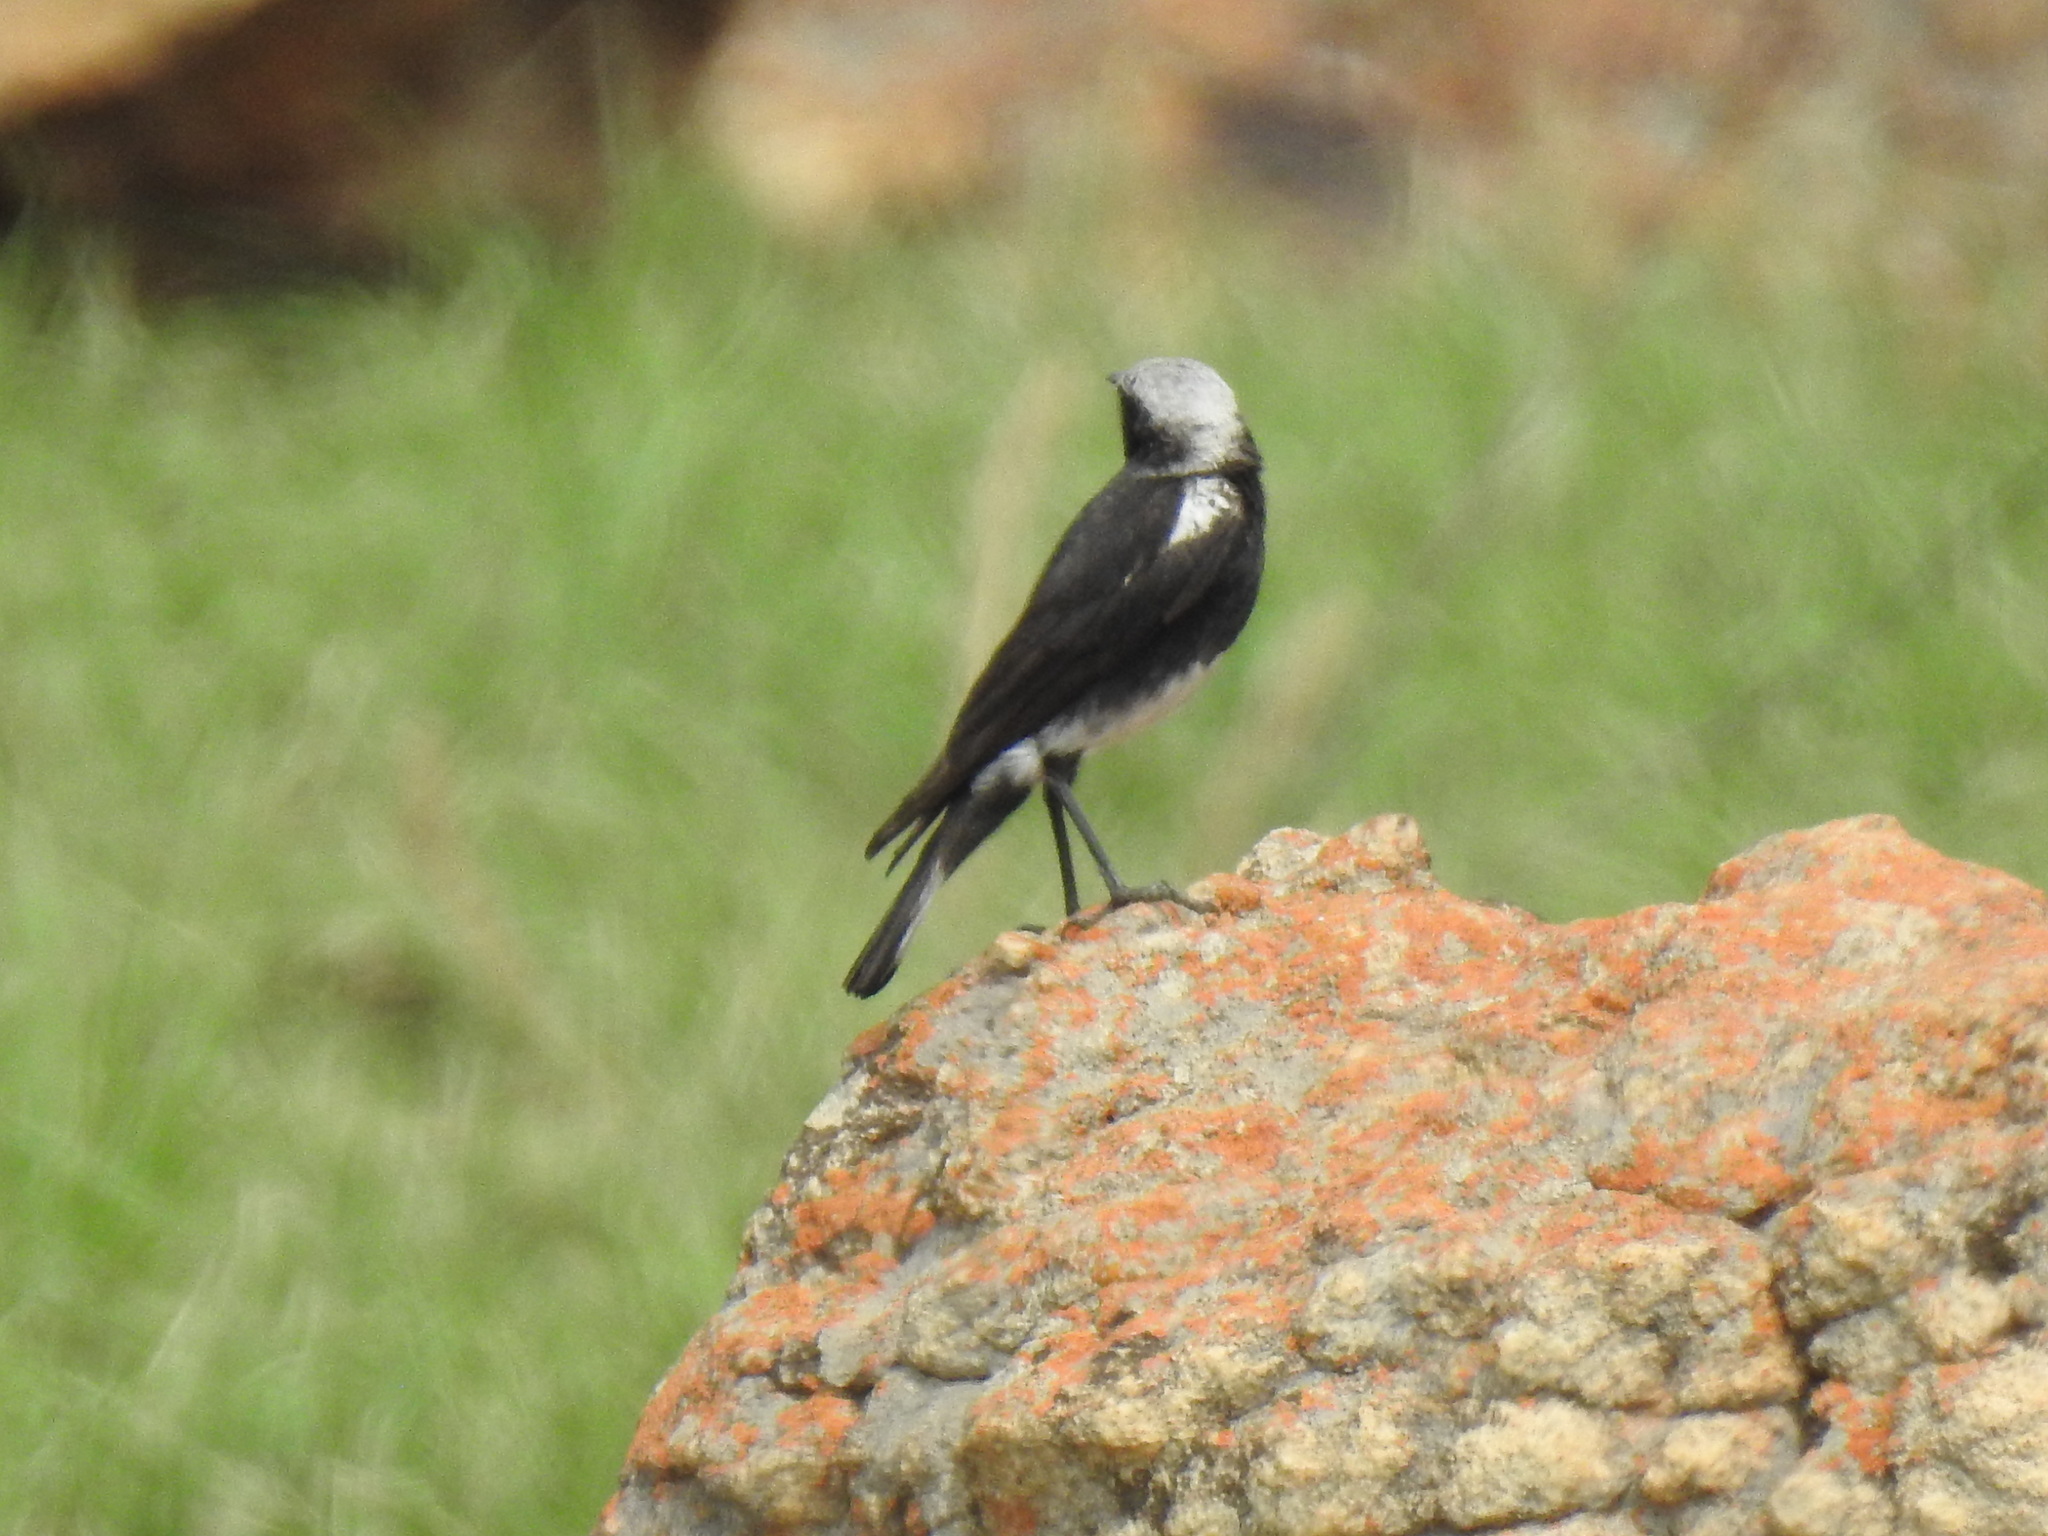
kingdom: Animalia
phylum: Chordata
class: Aves
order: Passeriformes
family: Muscicapidae
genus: Oenanthe
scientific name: Oenanthe monticola
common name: Mountain wheatear
